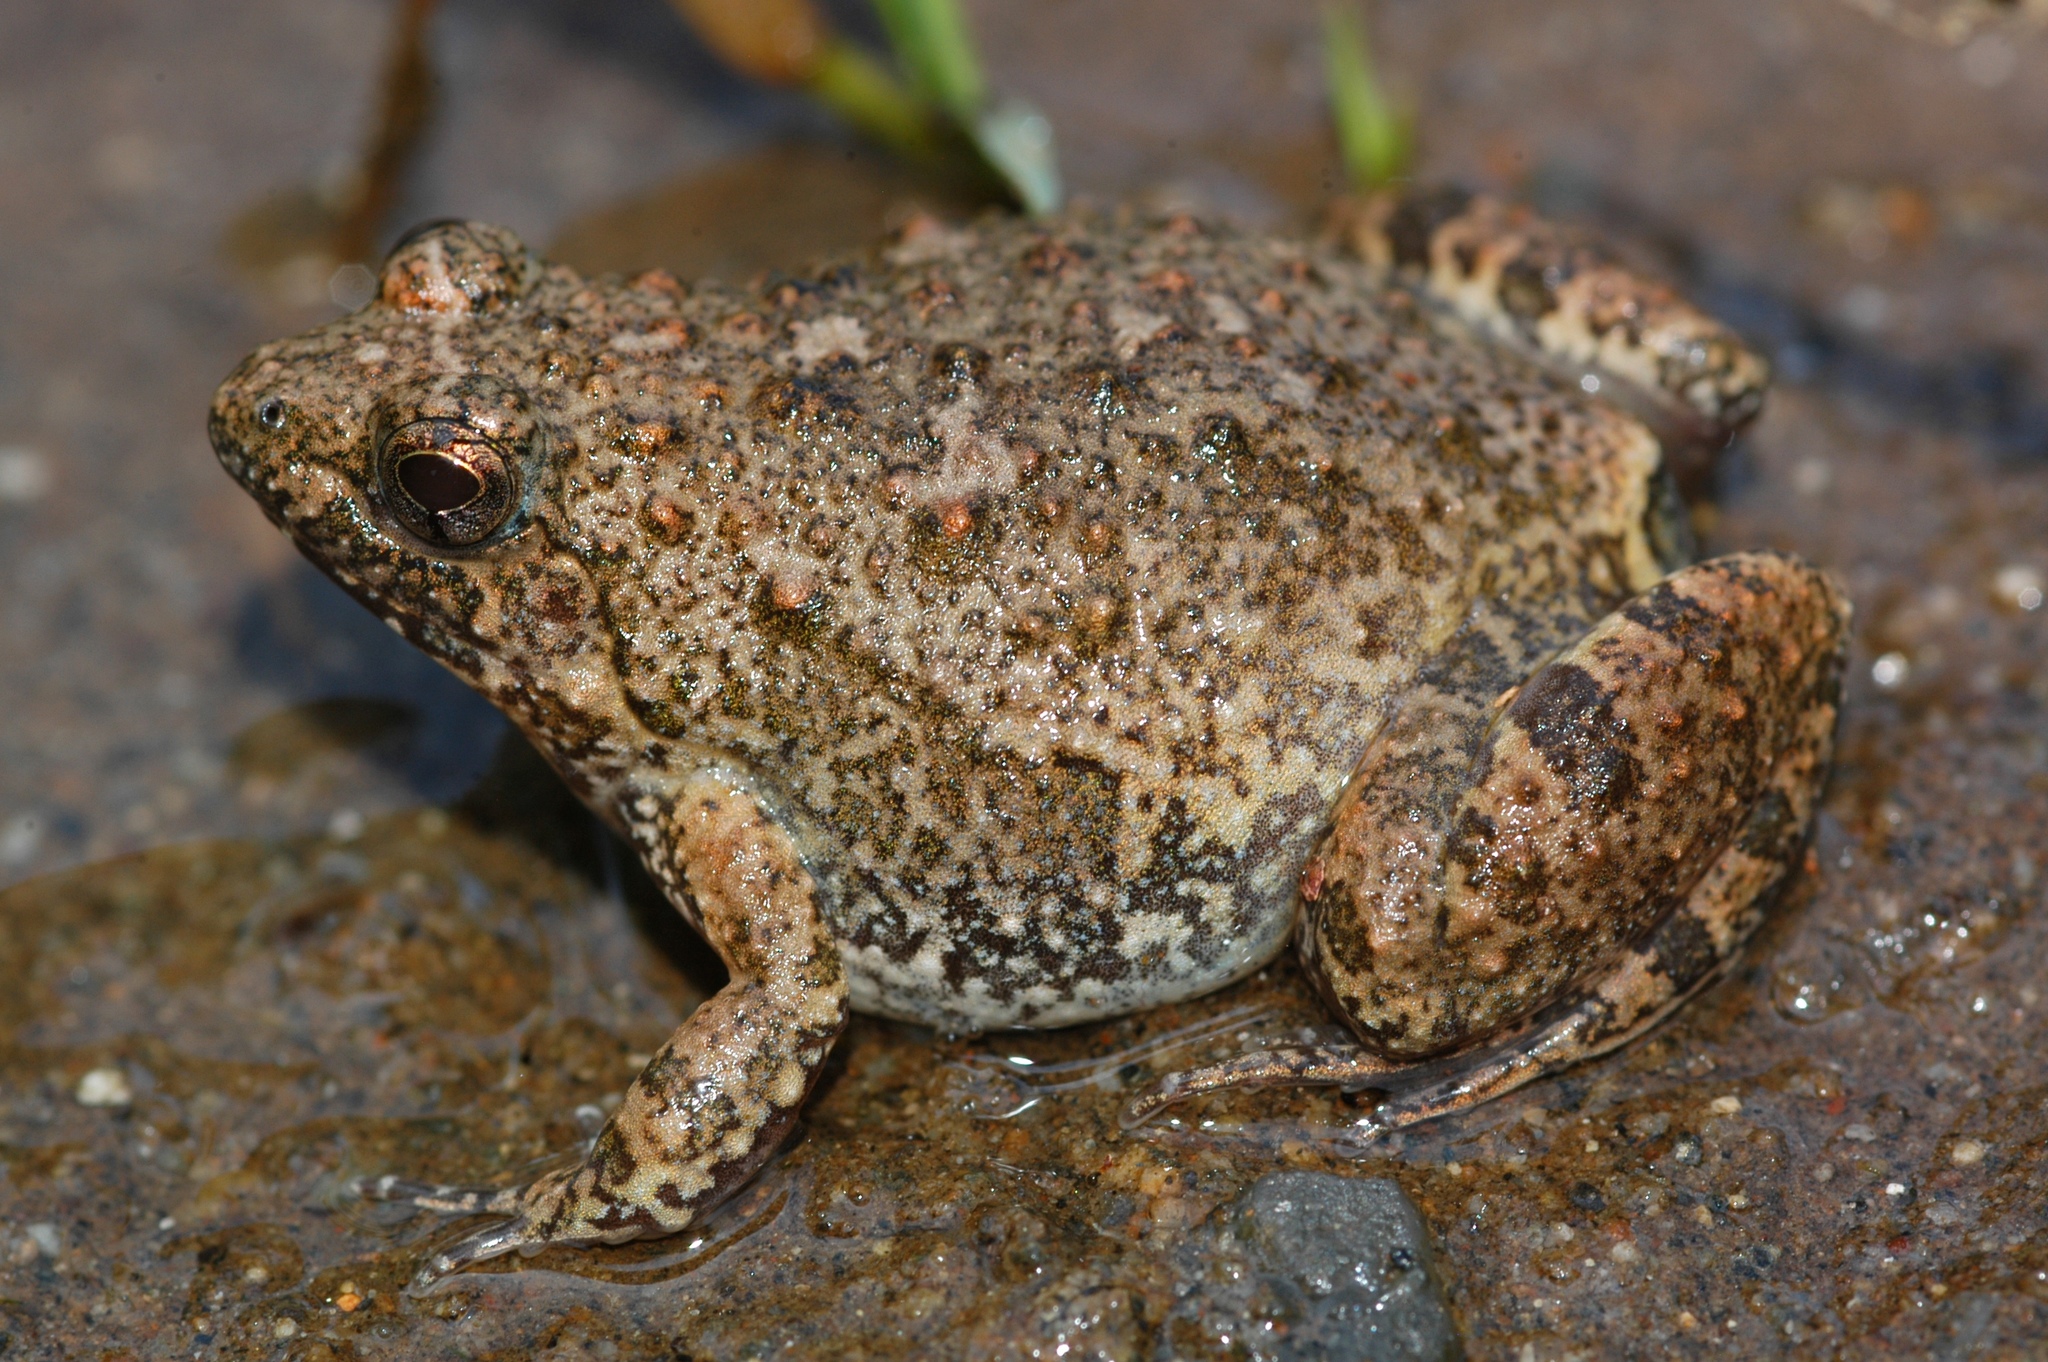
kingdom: Animalia
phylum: Chordata
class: Amphibia
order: Anura
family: Phrynobatrachidae
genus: Phrynobatrachus
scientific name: Phrynobatrachus natalensis
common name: Snoring puddle frog
